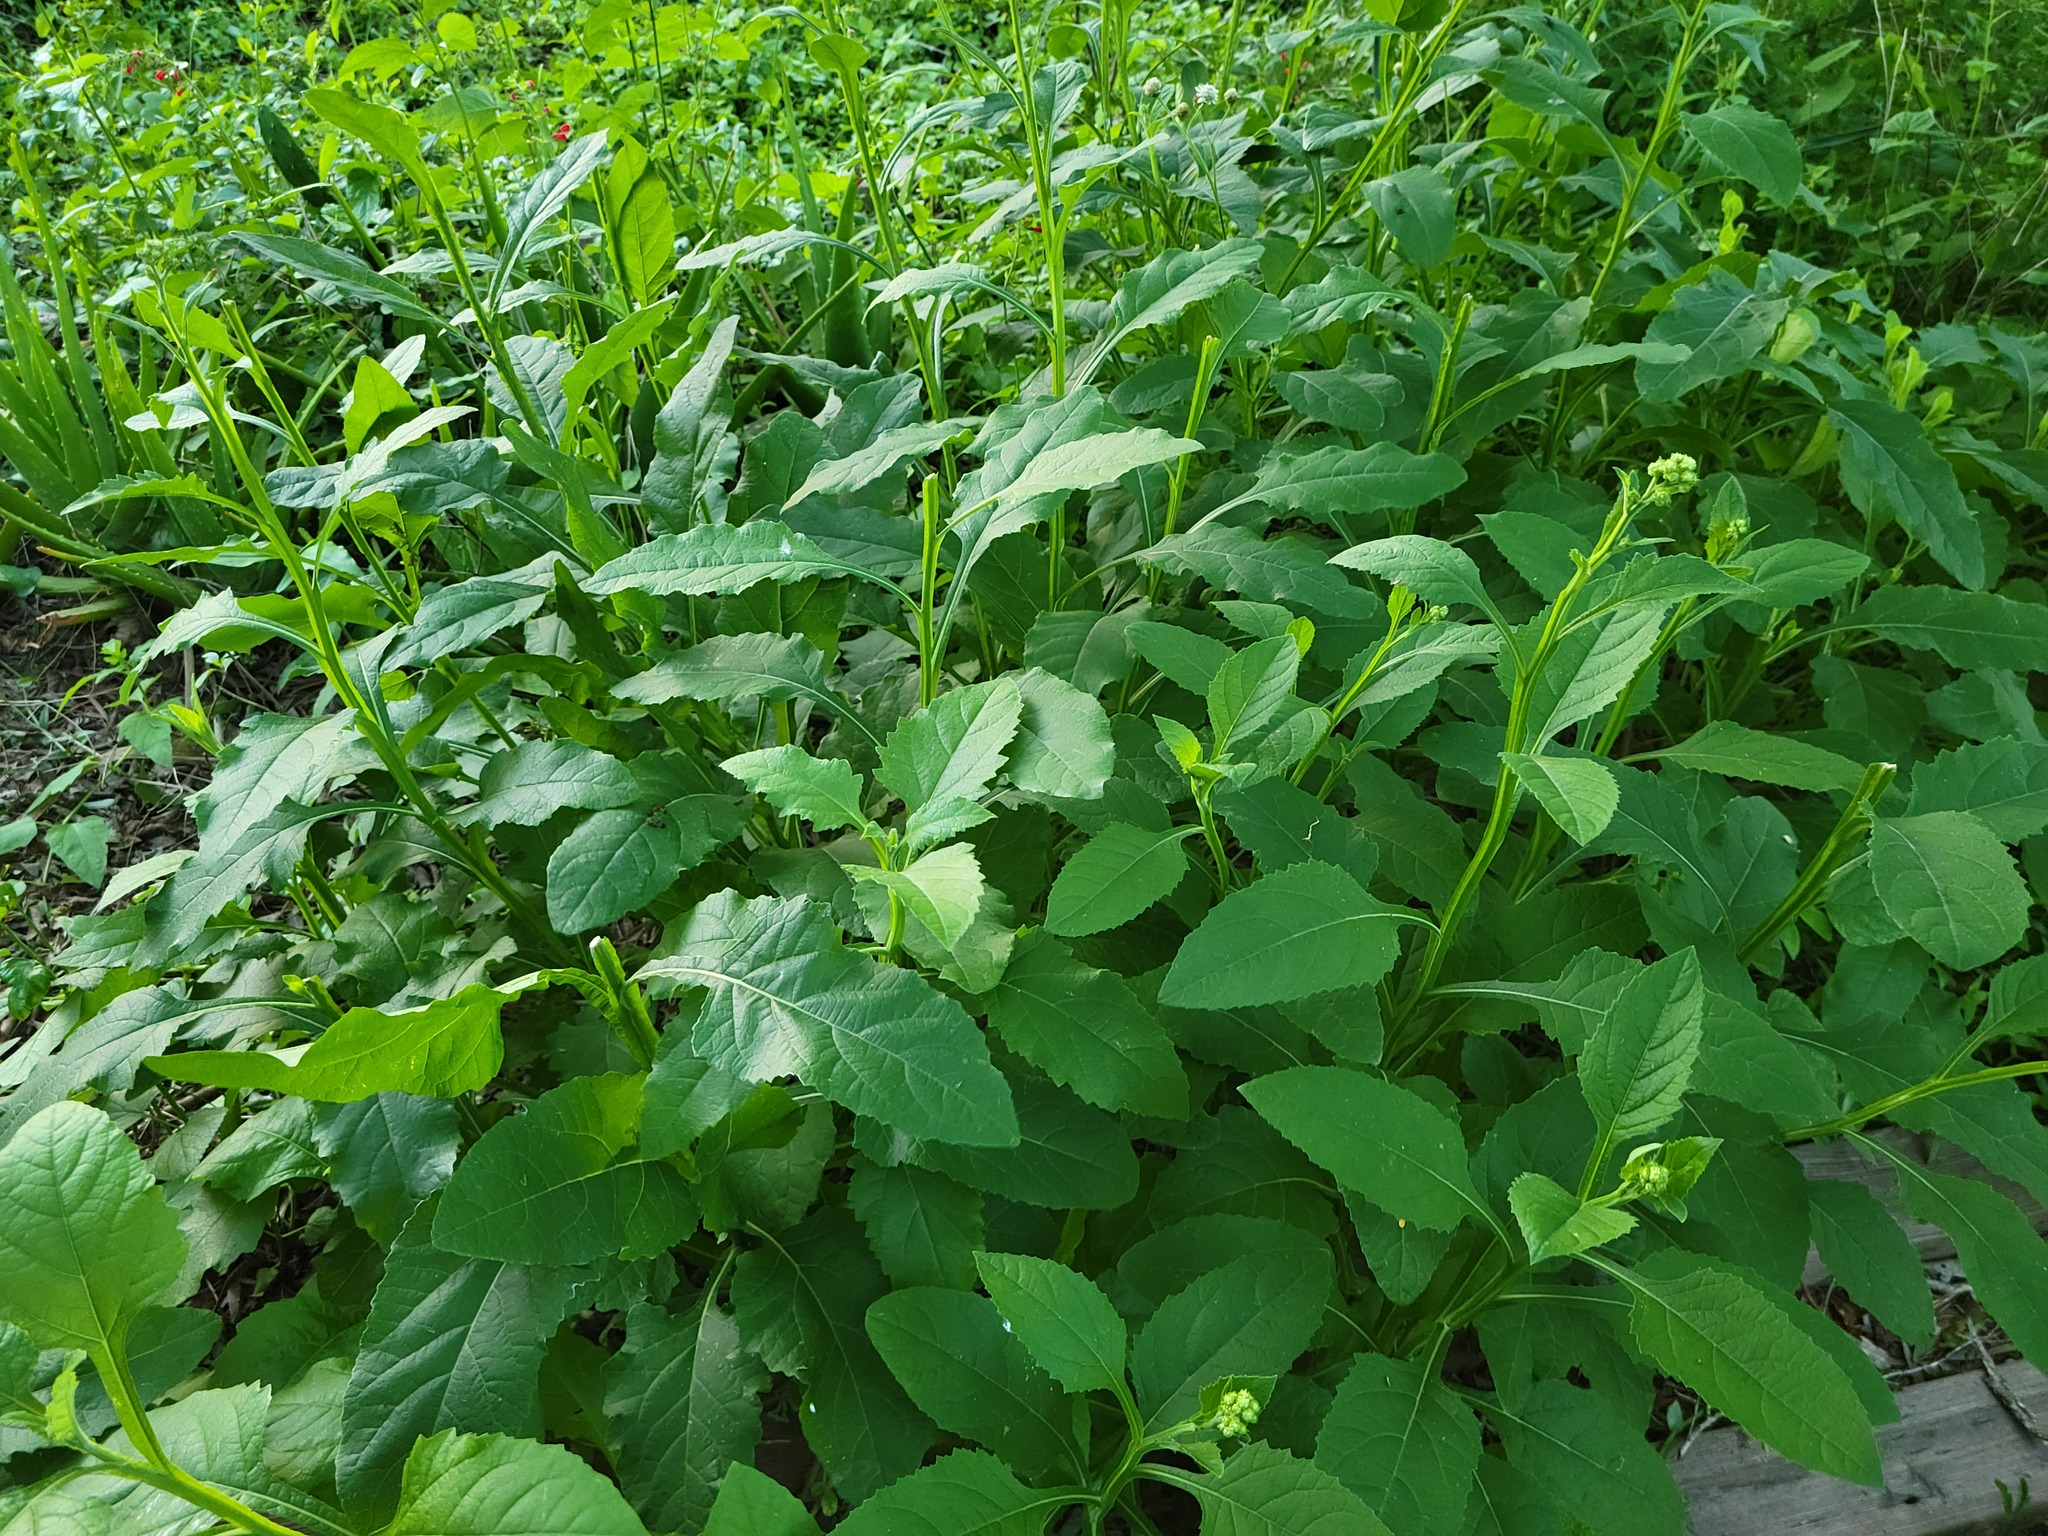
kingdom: Plantae
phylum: Tracheophyta
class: Magnoliopsida
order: Asterales
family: Asteraceae
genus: Verbesina
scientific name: Verbesina microptera
